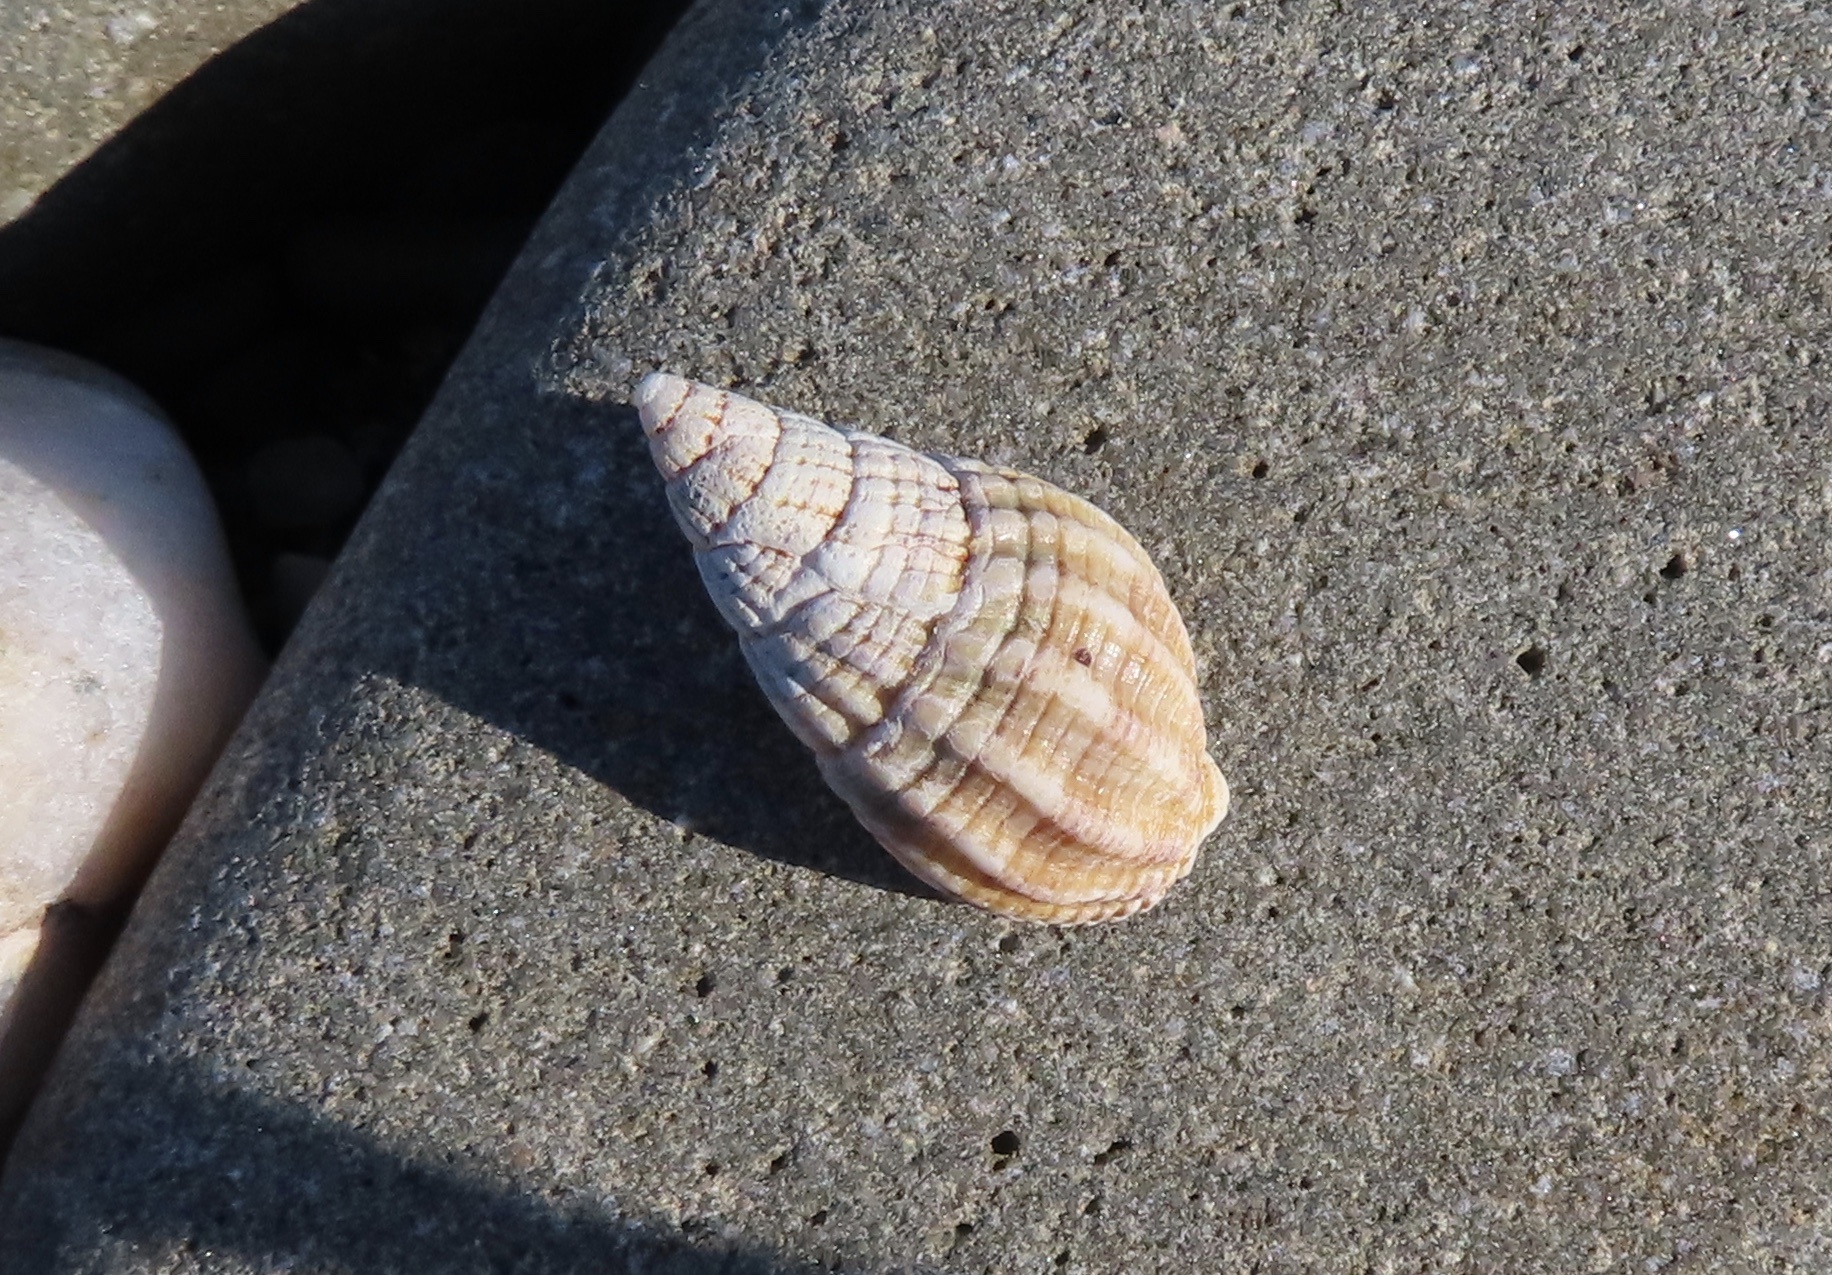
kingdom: Animalia
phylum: Mollusca
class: Gastropoda
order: Neogastropoda
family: Nassariidae
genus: Tritia
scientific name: Tritia
